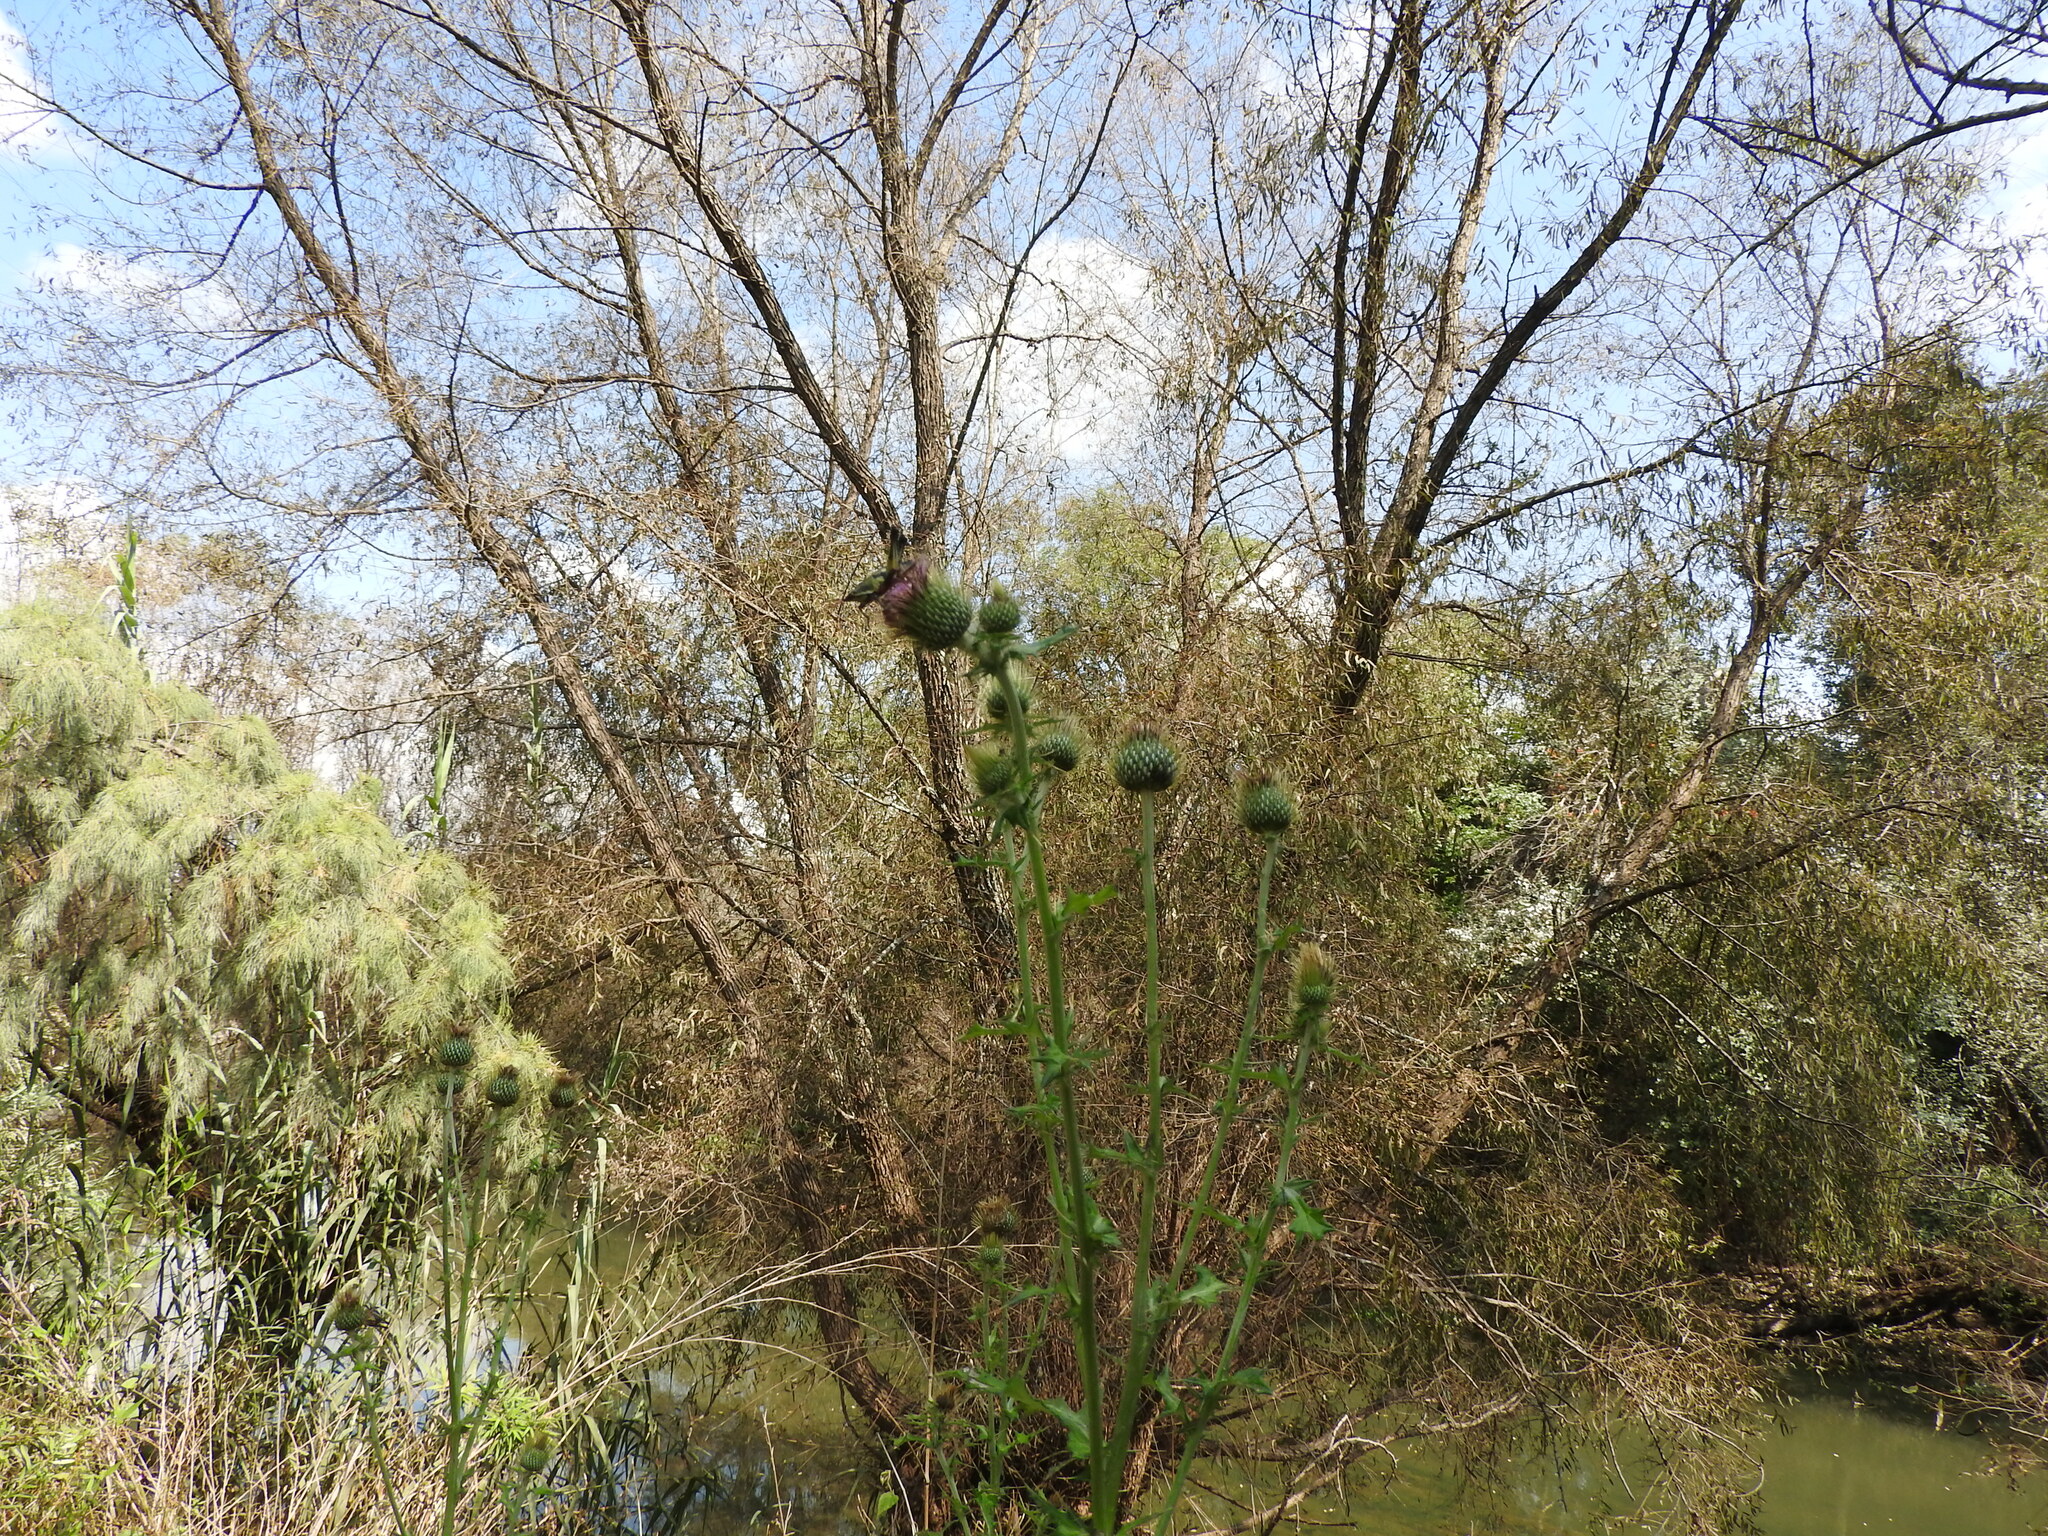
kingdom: Plantae
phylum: Tracheophyta
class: Magnoliopsida
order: Asterales
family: Asteraceae
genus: Cirsium
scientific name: Cirsium rhaphilepis
